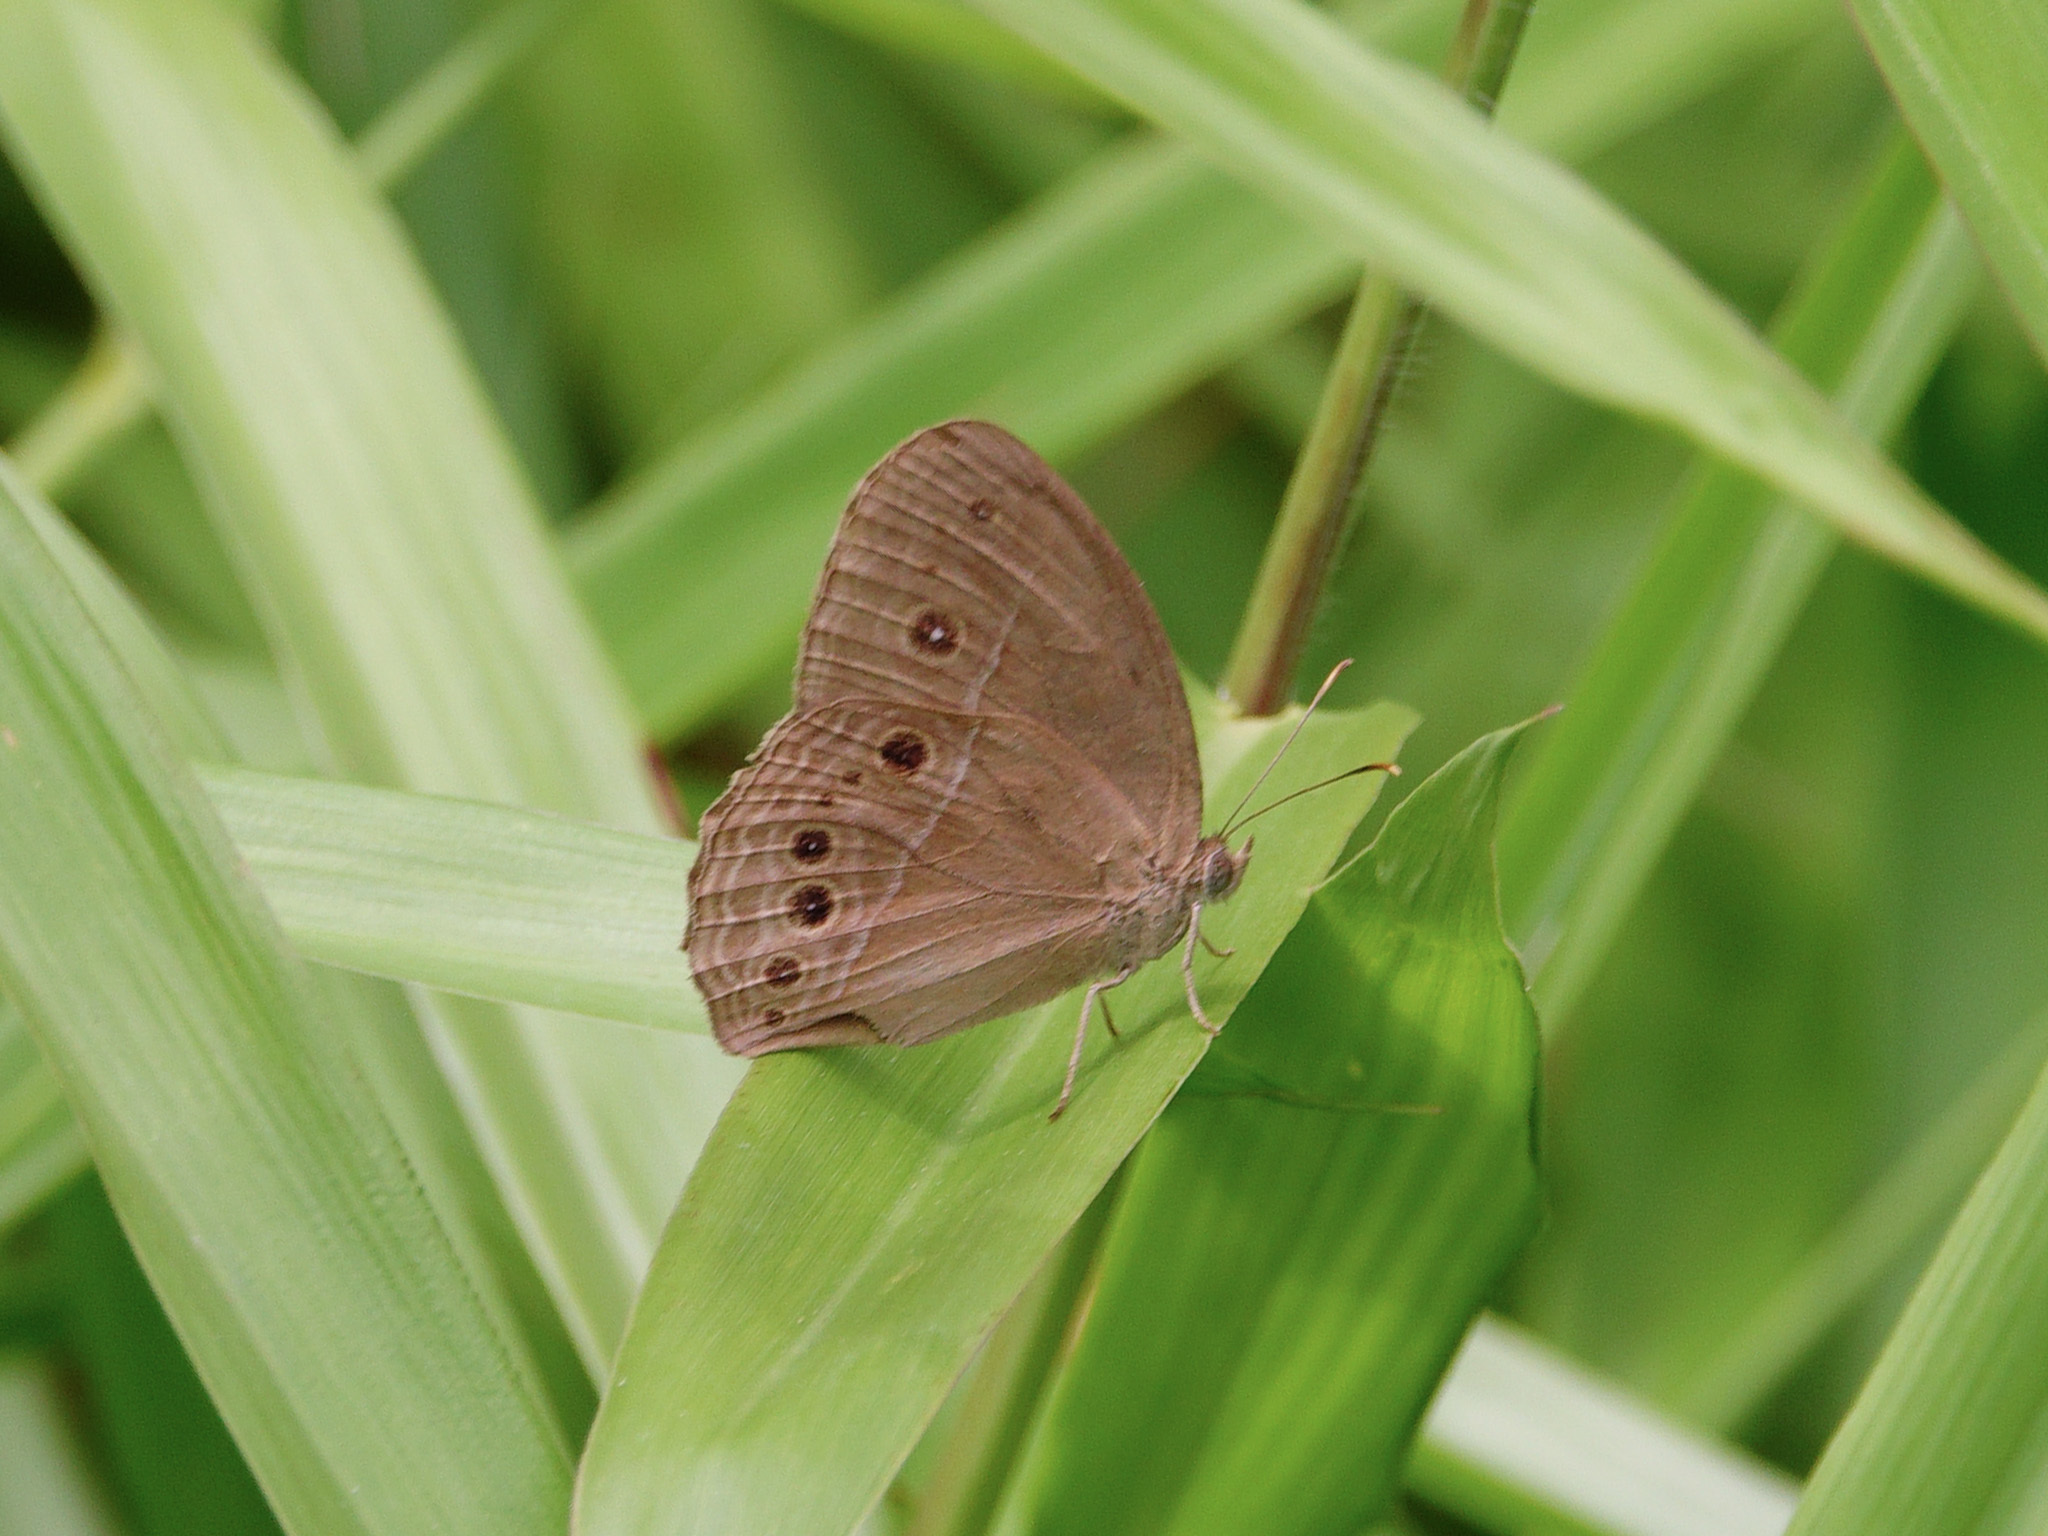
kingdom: Animalia
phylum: Arthropoda
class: Insecta
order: Lepidoptera
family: Nymphalidae
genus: Mycalesis
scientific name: Mycalesis perseus
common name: Dingy bushbrown
